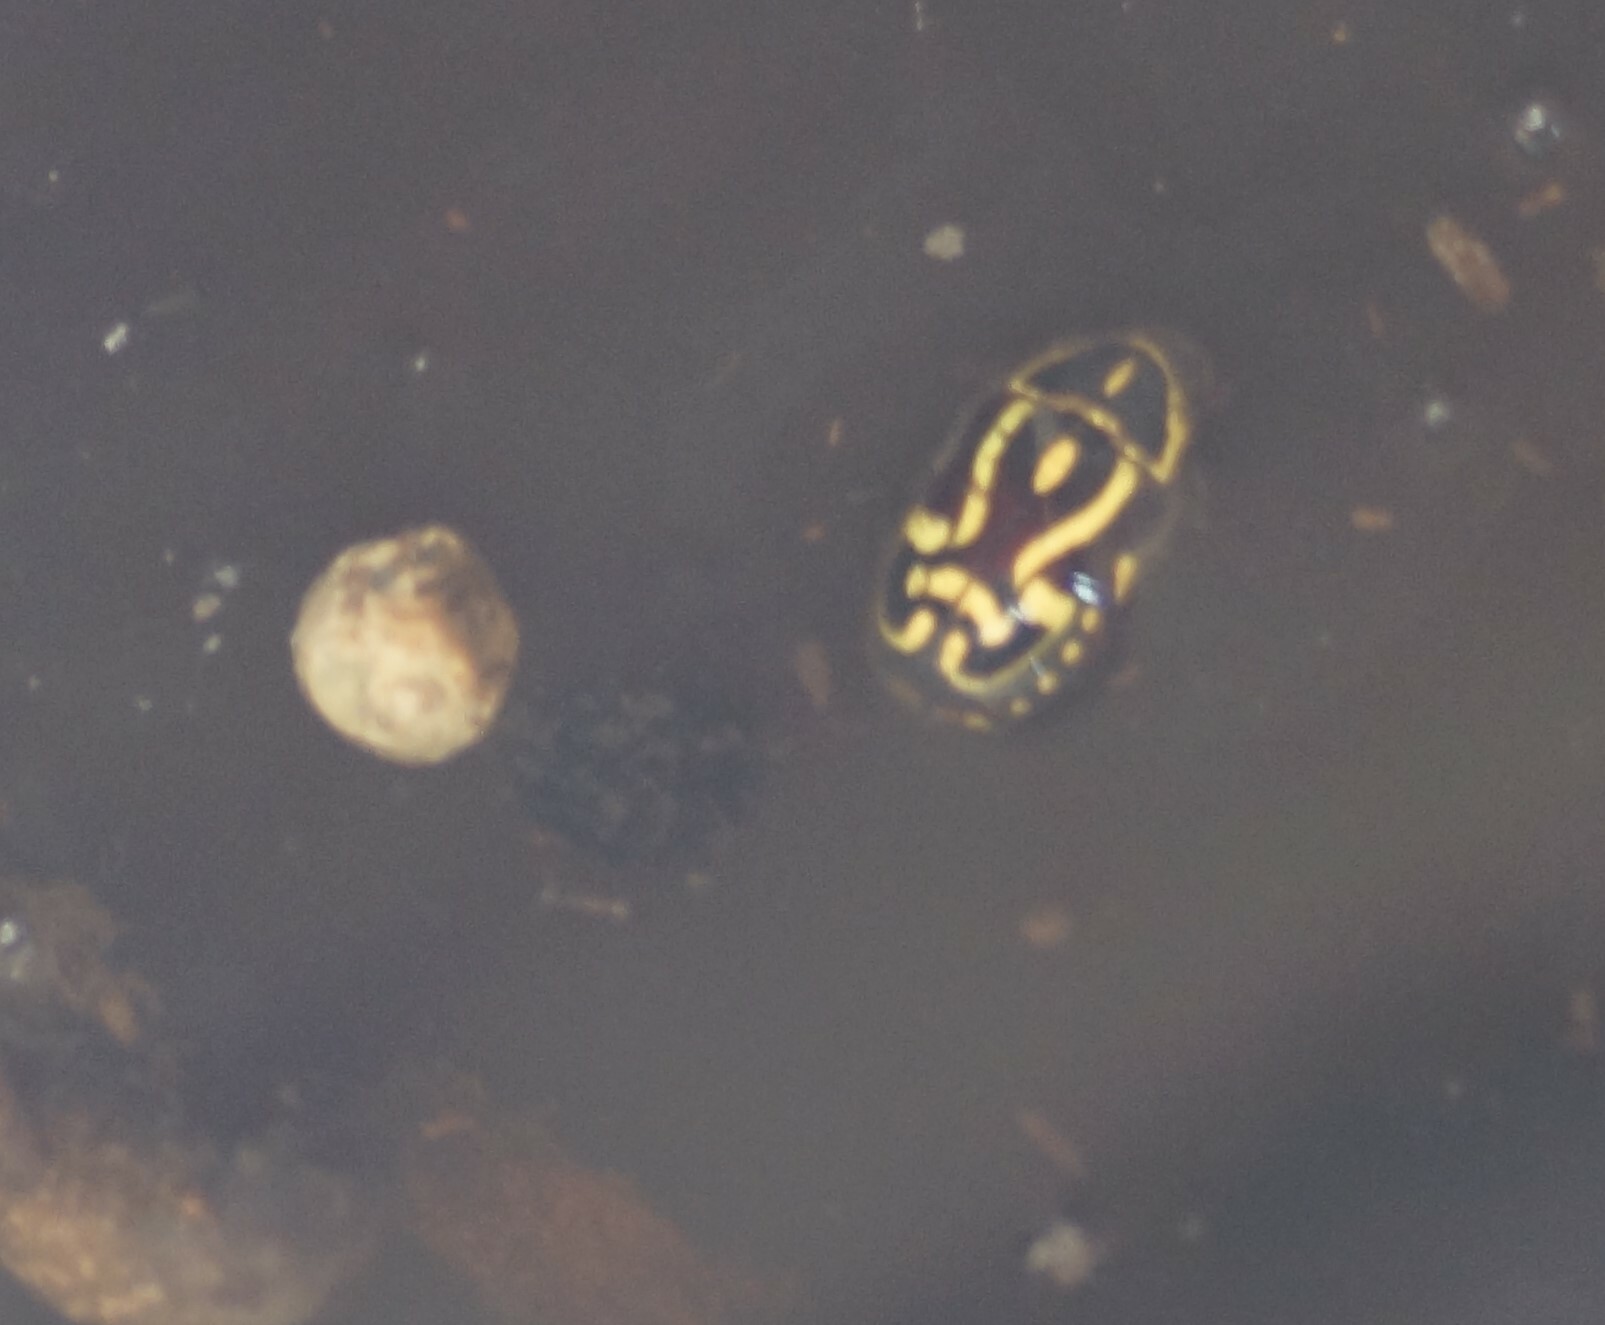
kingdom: Animalia
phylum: Arthropoda
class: Insecta
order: Coleoptera
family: Scarabaeidae
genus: Eupoecila
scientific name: Eupoecila australasiae
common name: Fiddler beetle
